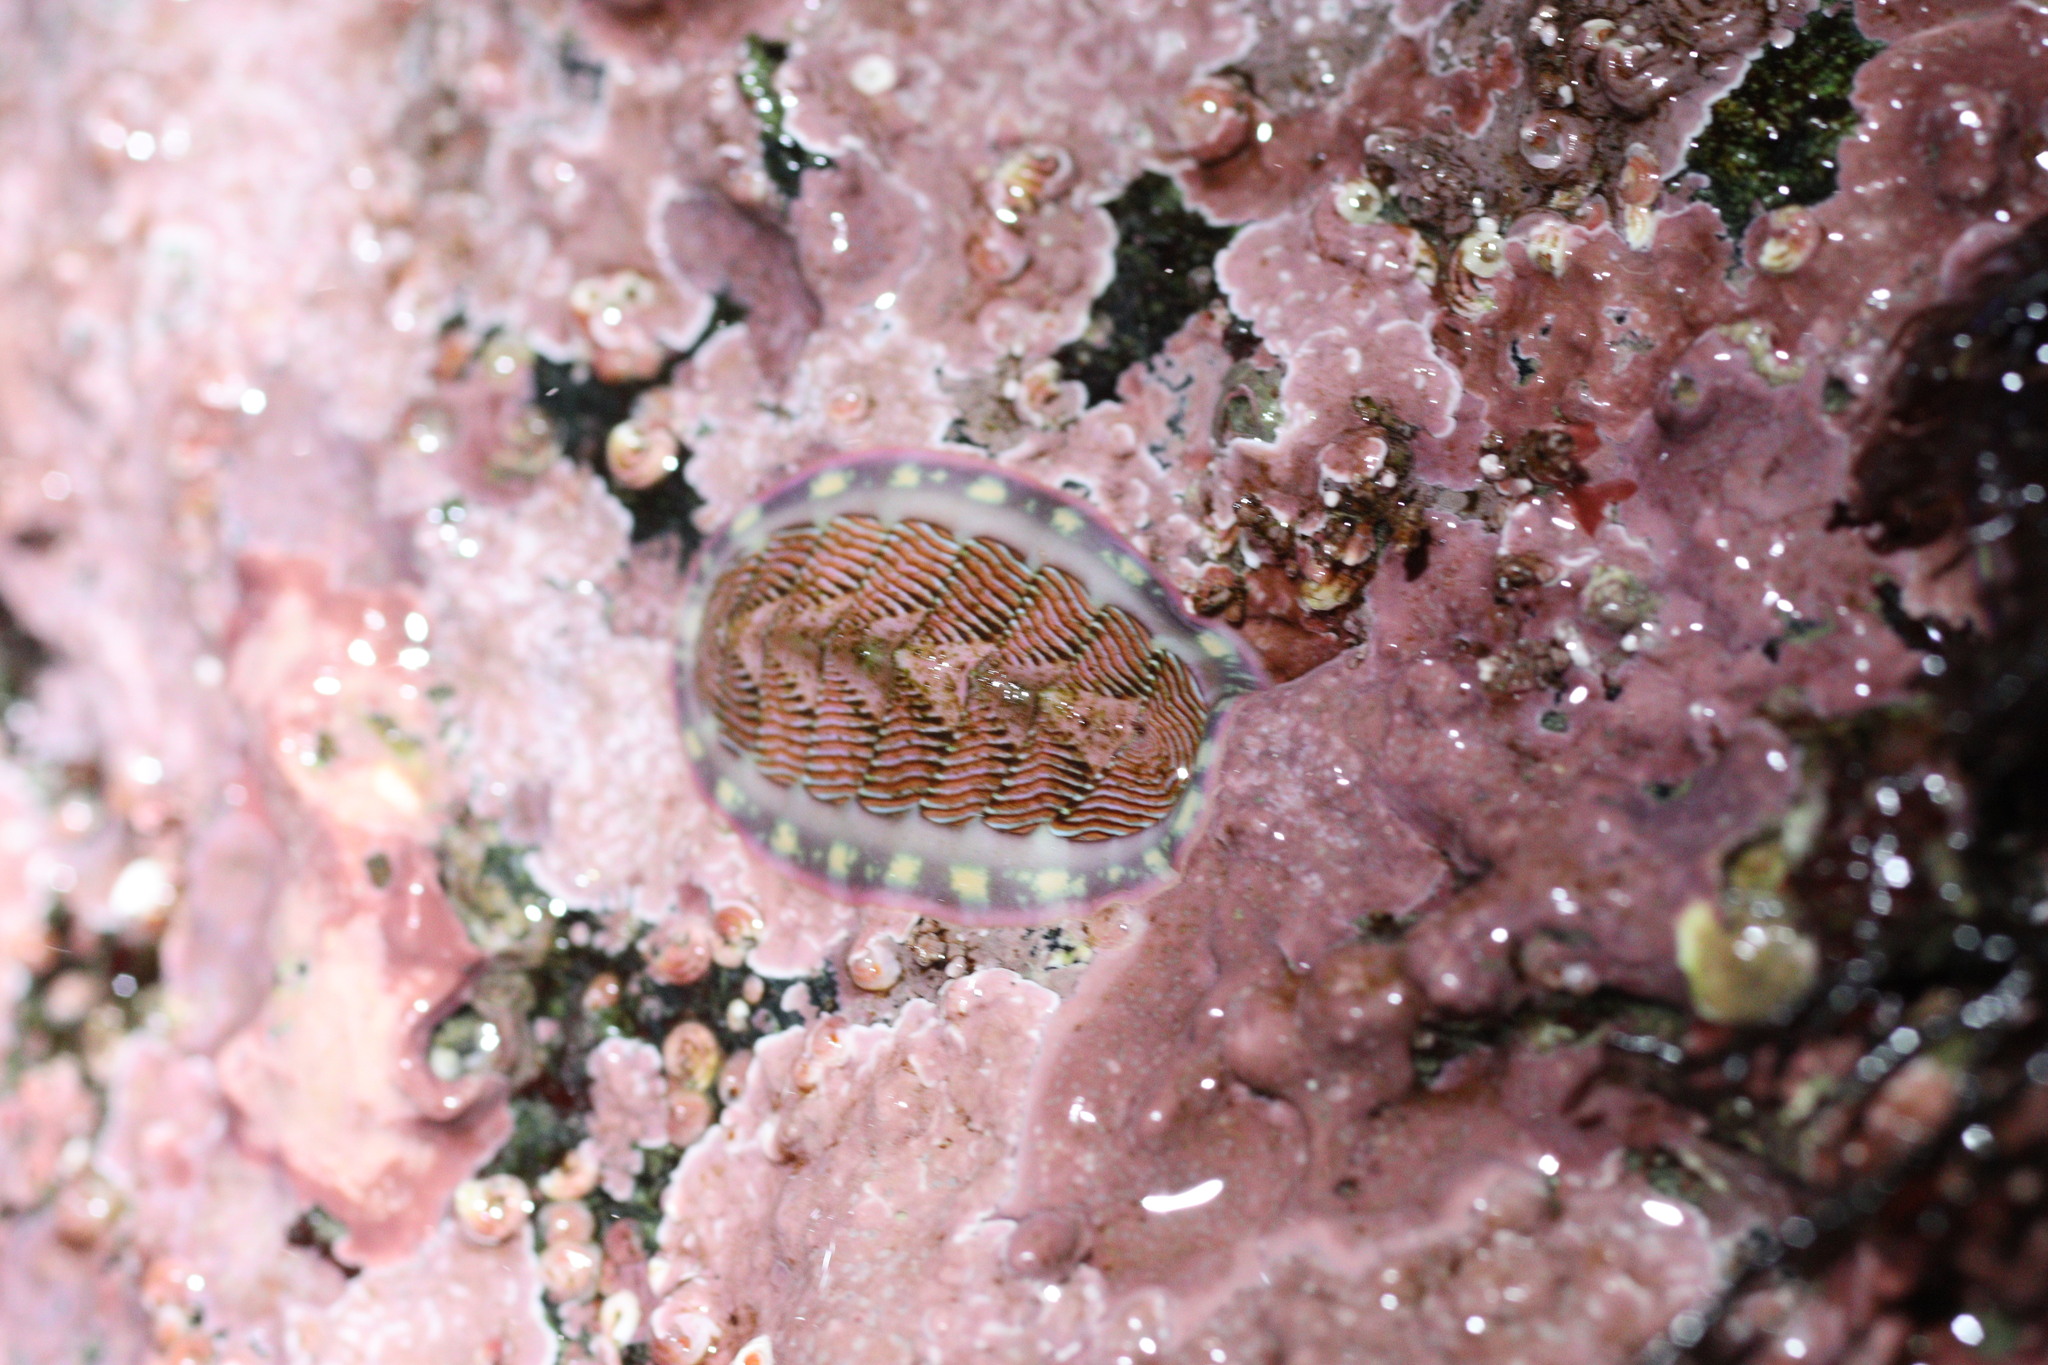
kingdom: Animalia
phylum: Mollusca
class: Polyplacophora
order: Chitonida
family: Tonicellidae
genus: Tonicella
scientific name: Tonicella lineata
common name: Lined chiton
